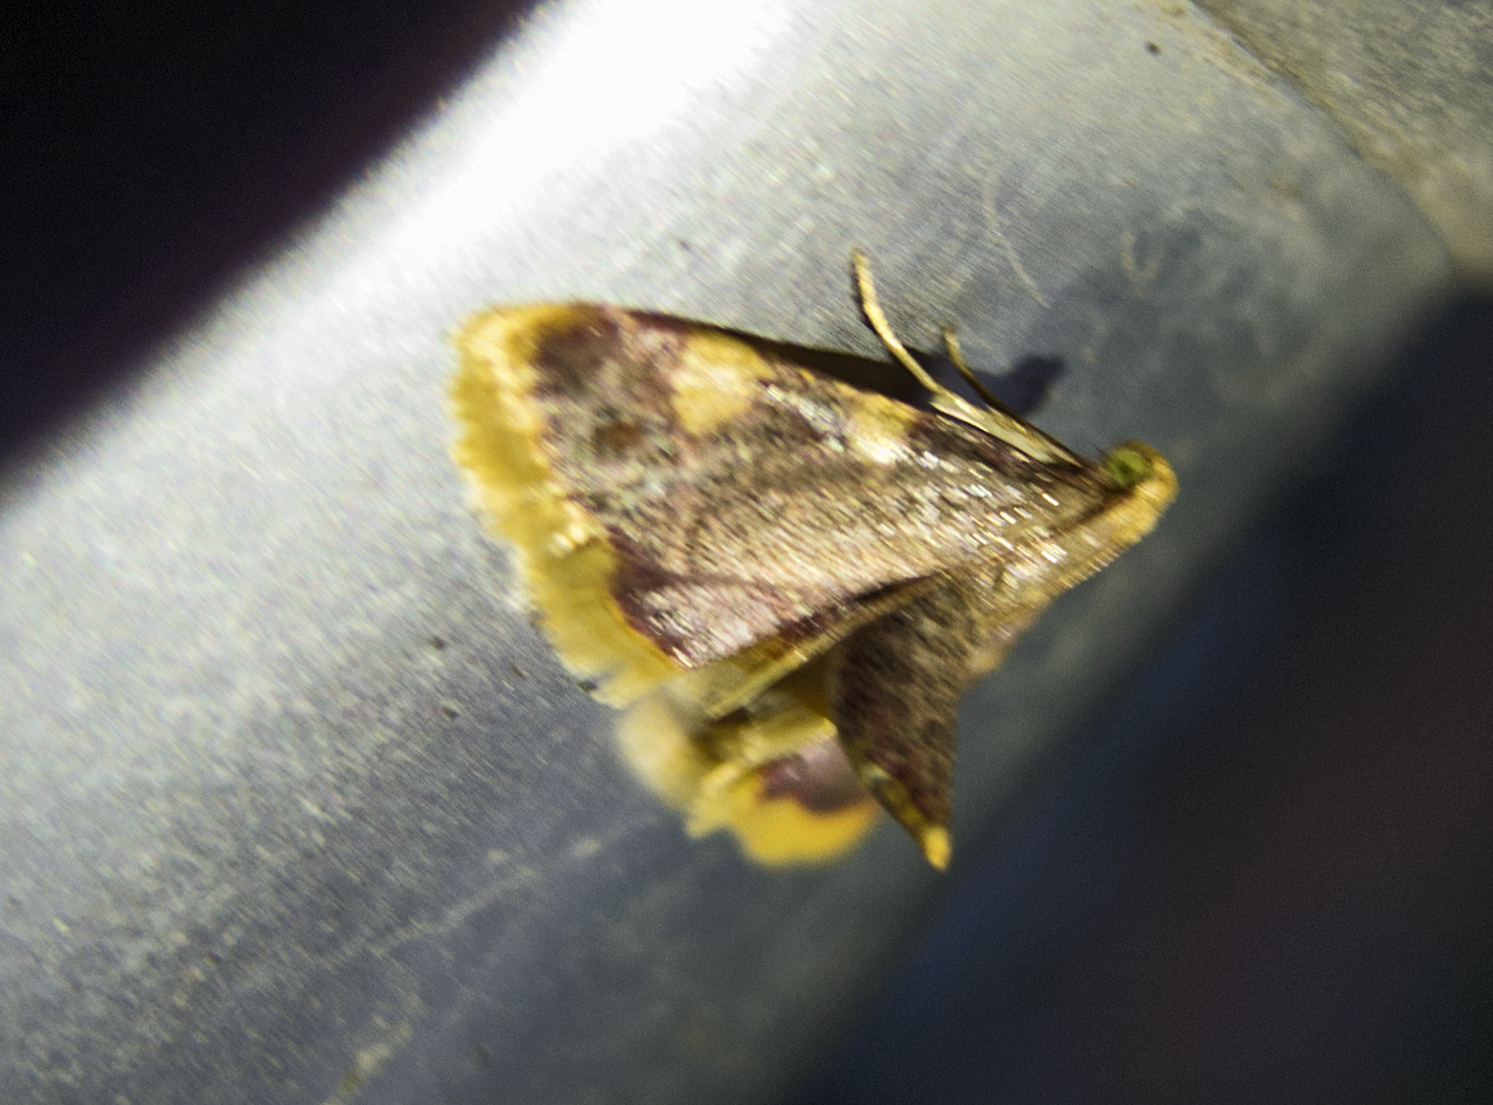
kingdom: Animalia
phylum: Arthropoda
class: Insecta
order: Lepidoptera
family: Pyralidae
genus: Hypsopygia
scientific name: Hypsopygia costalis
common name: Gold triangle
